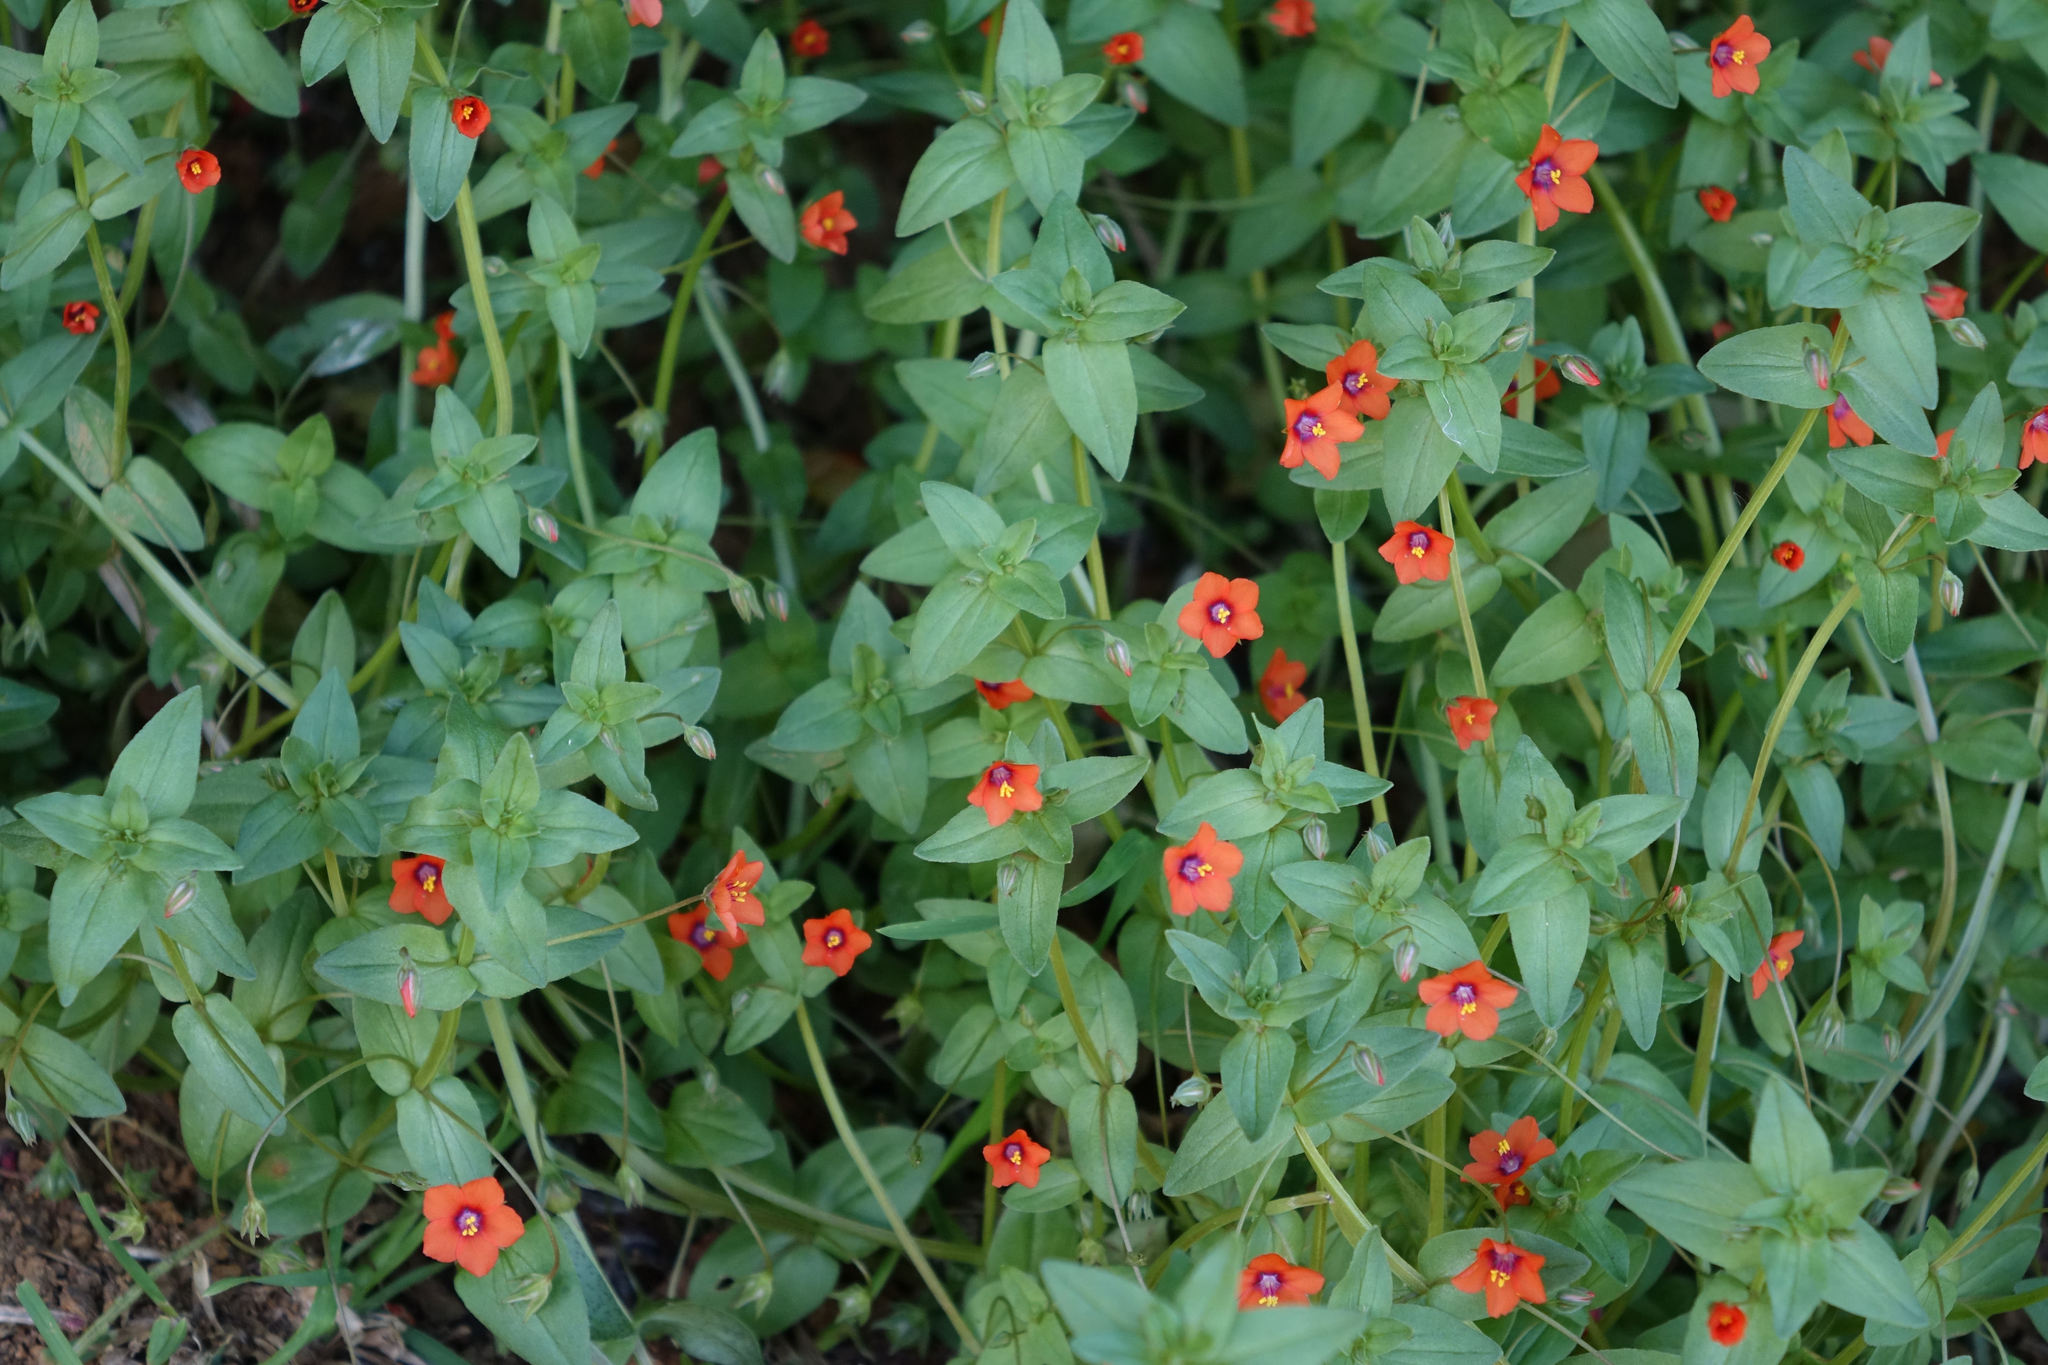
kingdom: Plantae
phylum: Tracheophyta
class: Magnoliopsida
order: Ericales
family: Primulaceae
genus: Lysimachia
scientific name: Lysimachia arvensis
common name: Scarlet pimpernel
